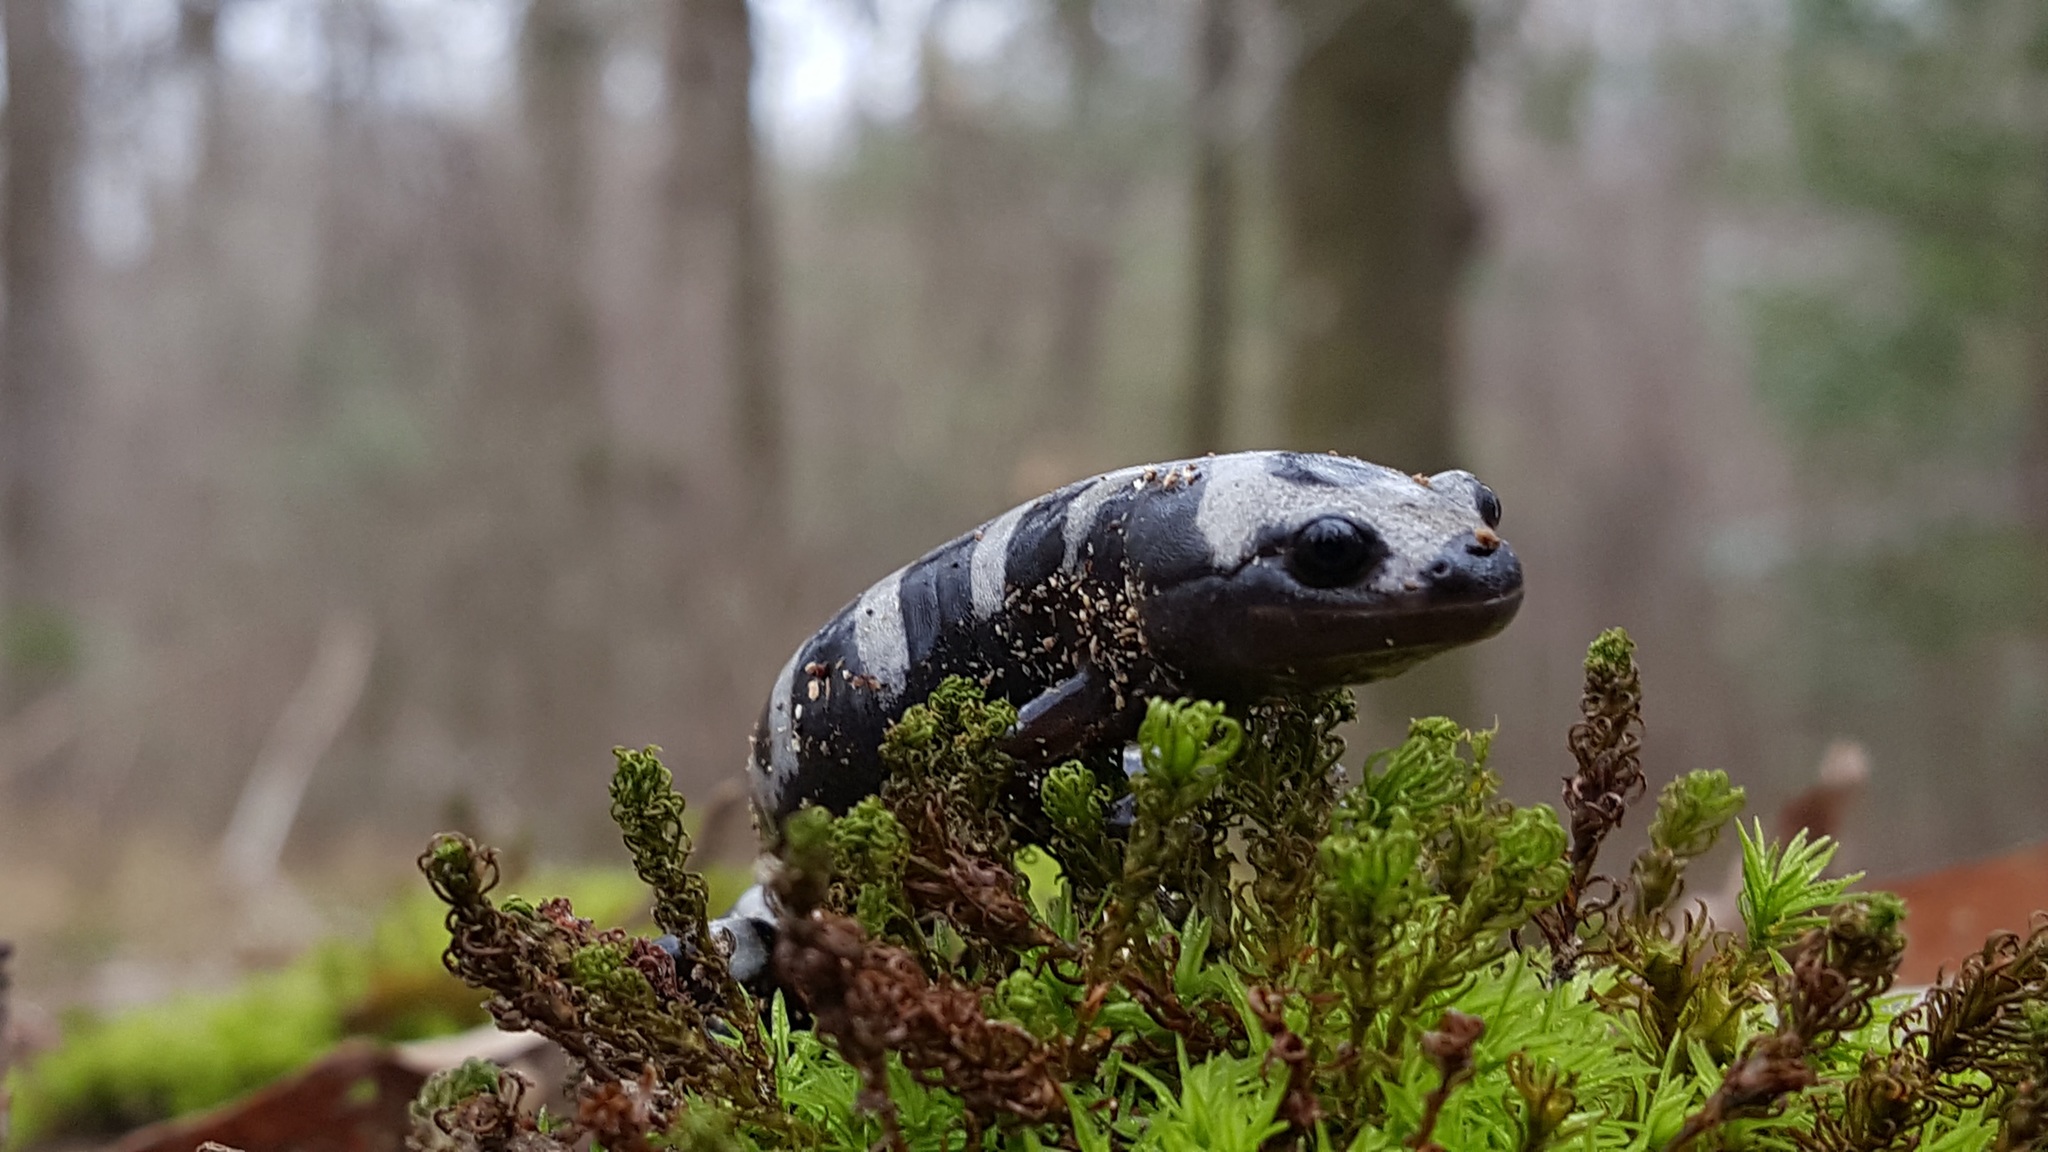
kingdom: Animalia
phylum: Chordata
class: Amphibia
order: Caudata
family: Ambystomatidae
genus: Ambystoma
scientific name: Ambystoma opacum
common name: Marbled salamander
